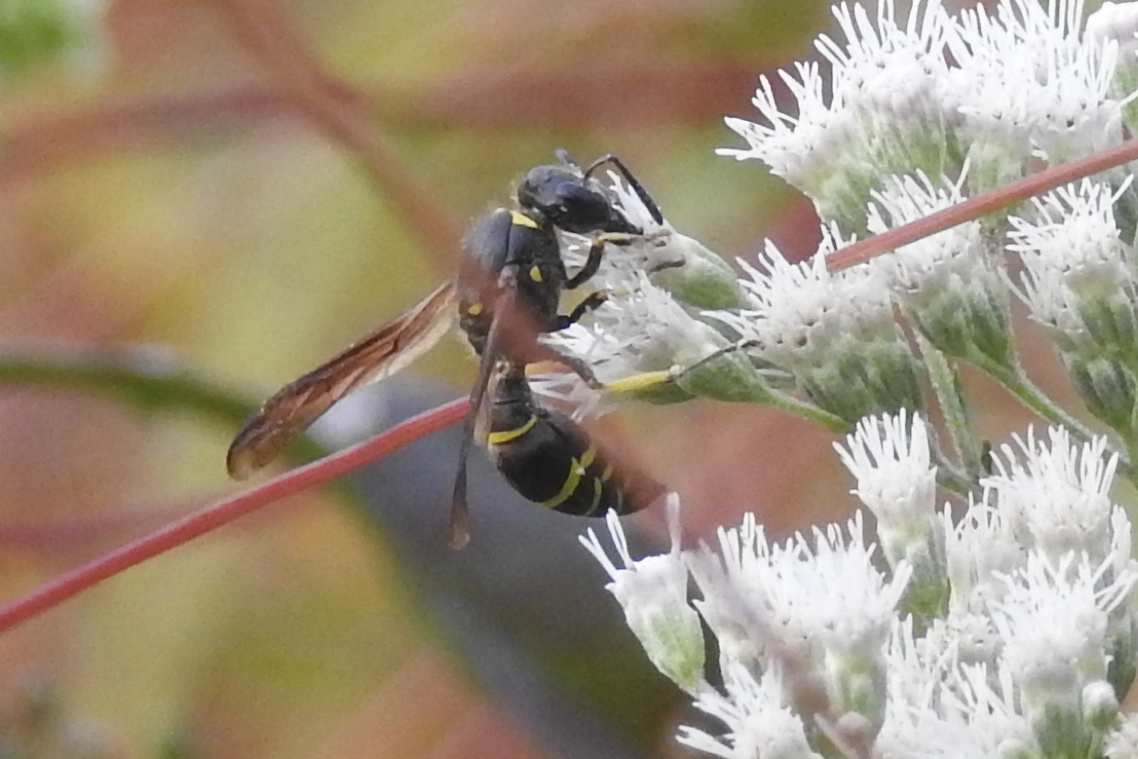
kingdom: Animalia
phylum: Arthropoda
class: Insecta
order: Hymenoptera
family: Vespidae
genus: Ancistrocerus
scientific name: Ancistrocerus
